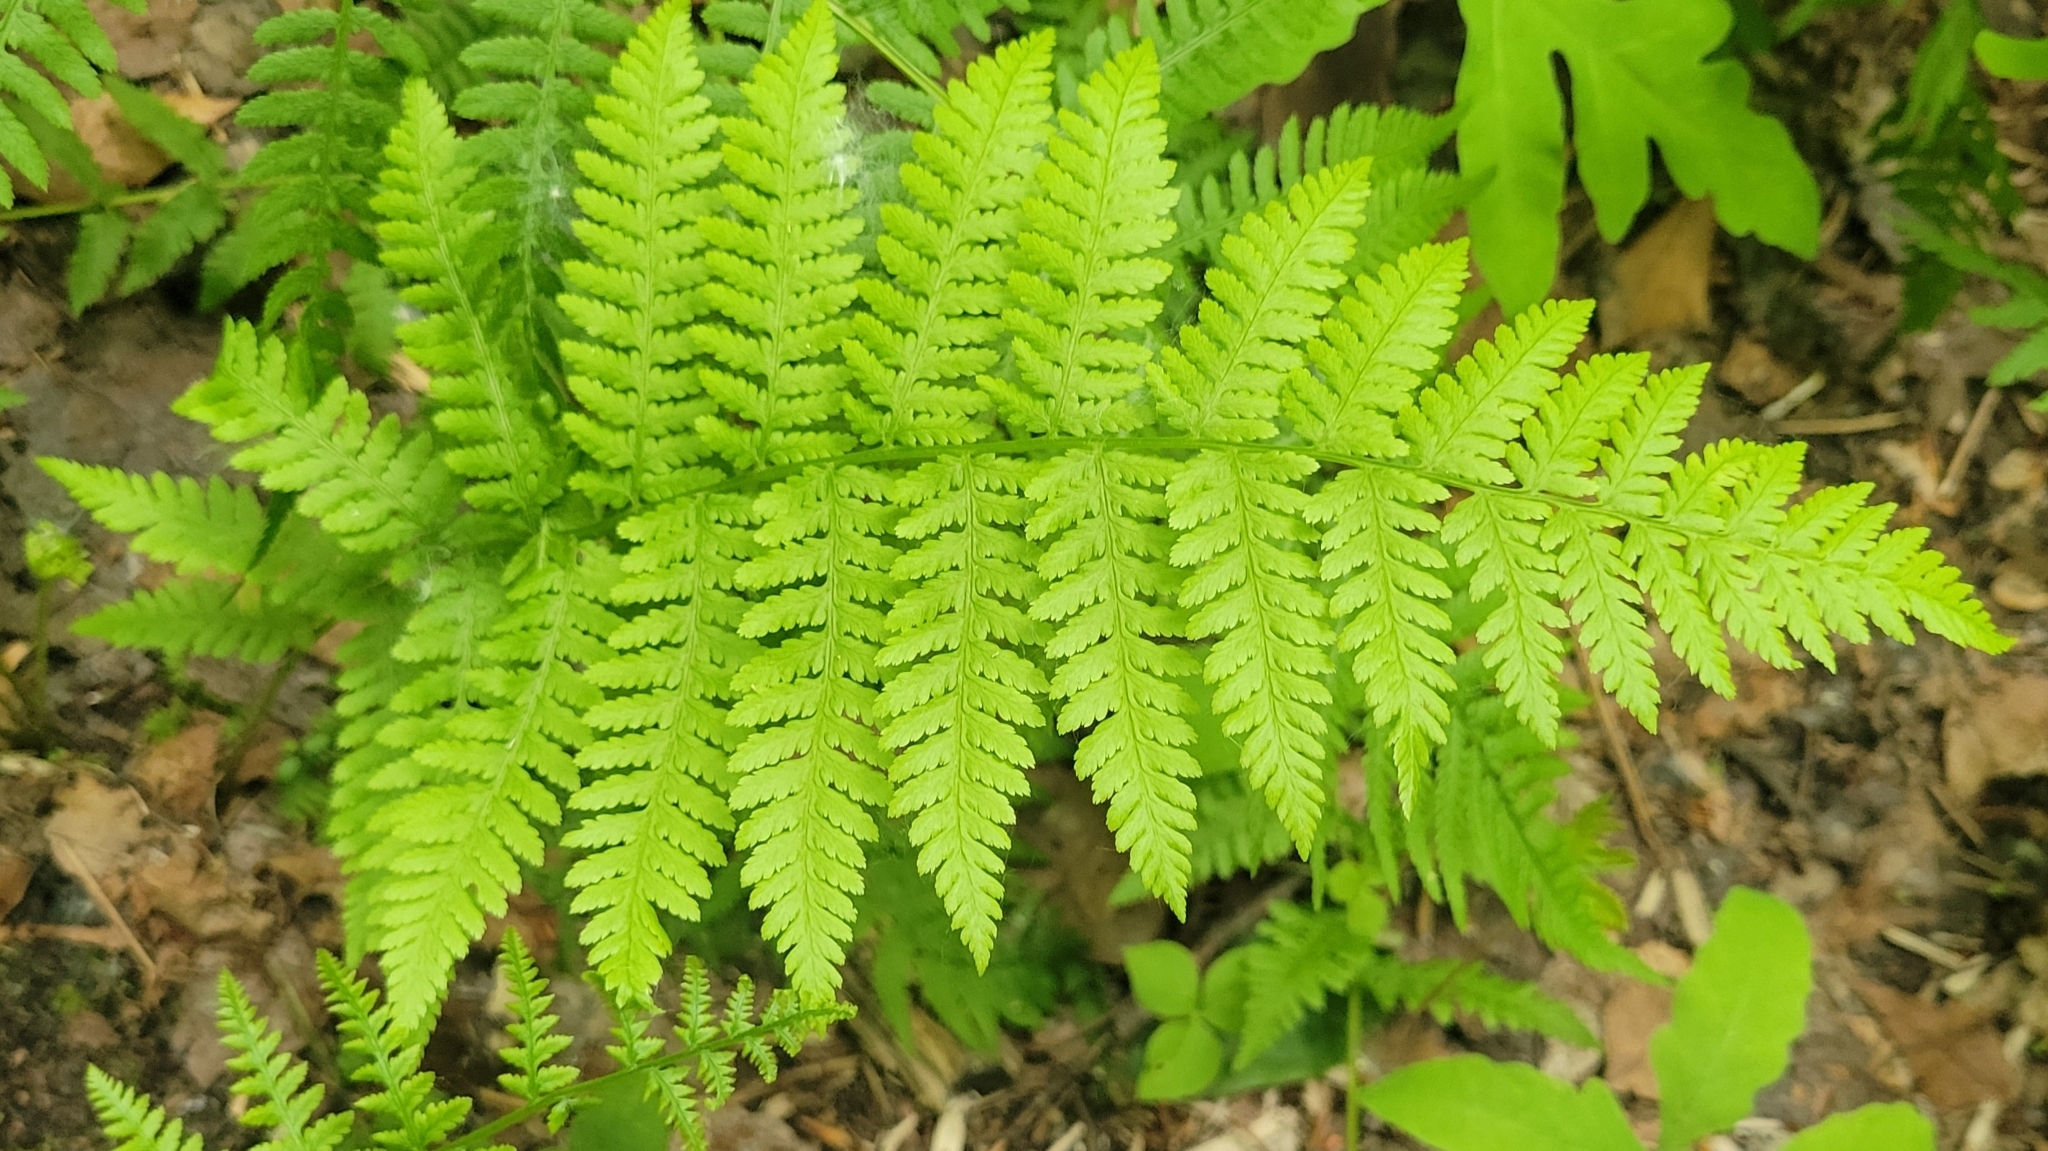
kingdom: Plantae
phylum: Tracheophyta
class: Polypodiopsida
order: Polypodiales
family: Athyriaceae
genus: Athyrium
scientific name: Athyrium angustum
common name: Northern lady fern
